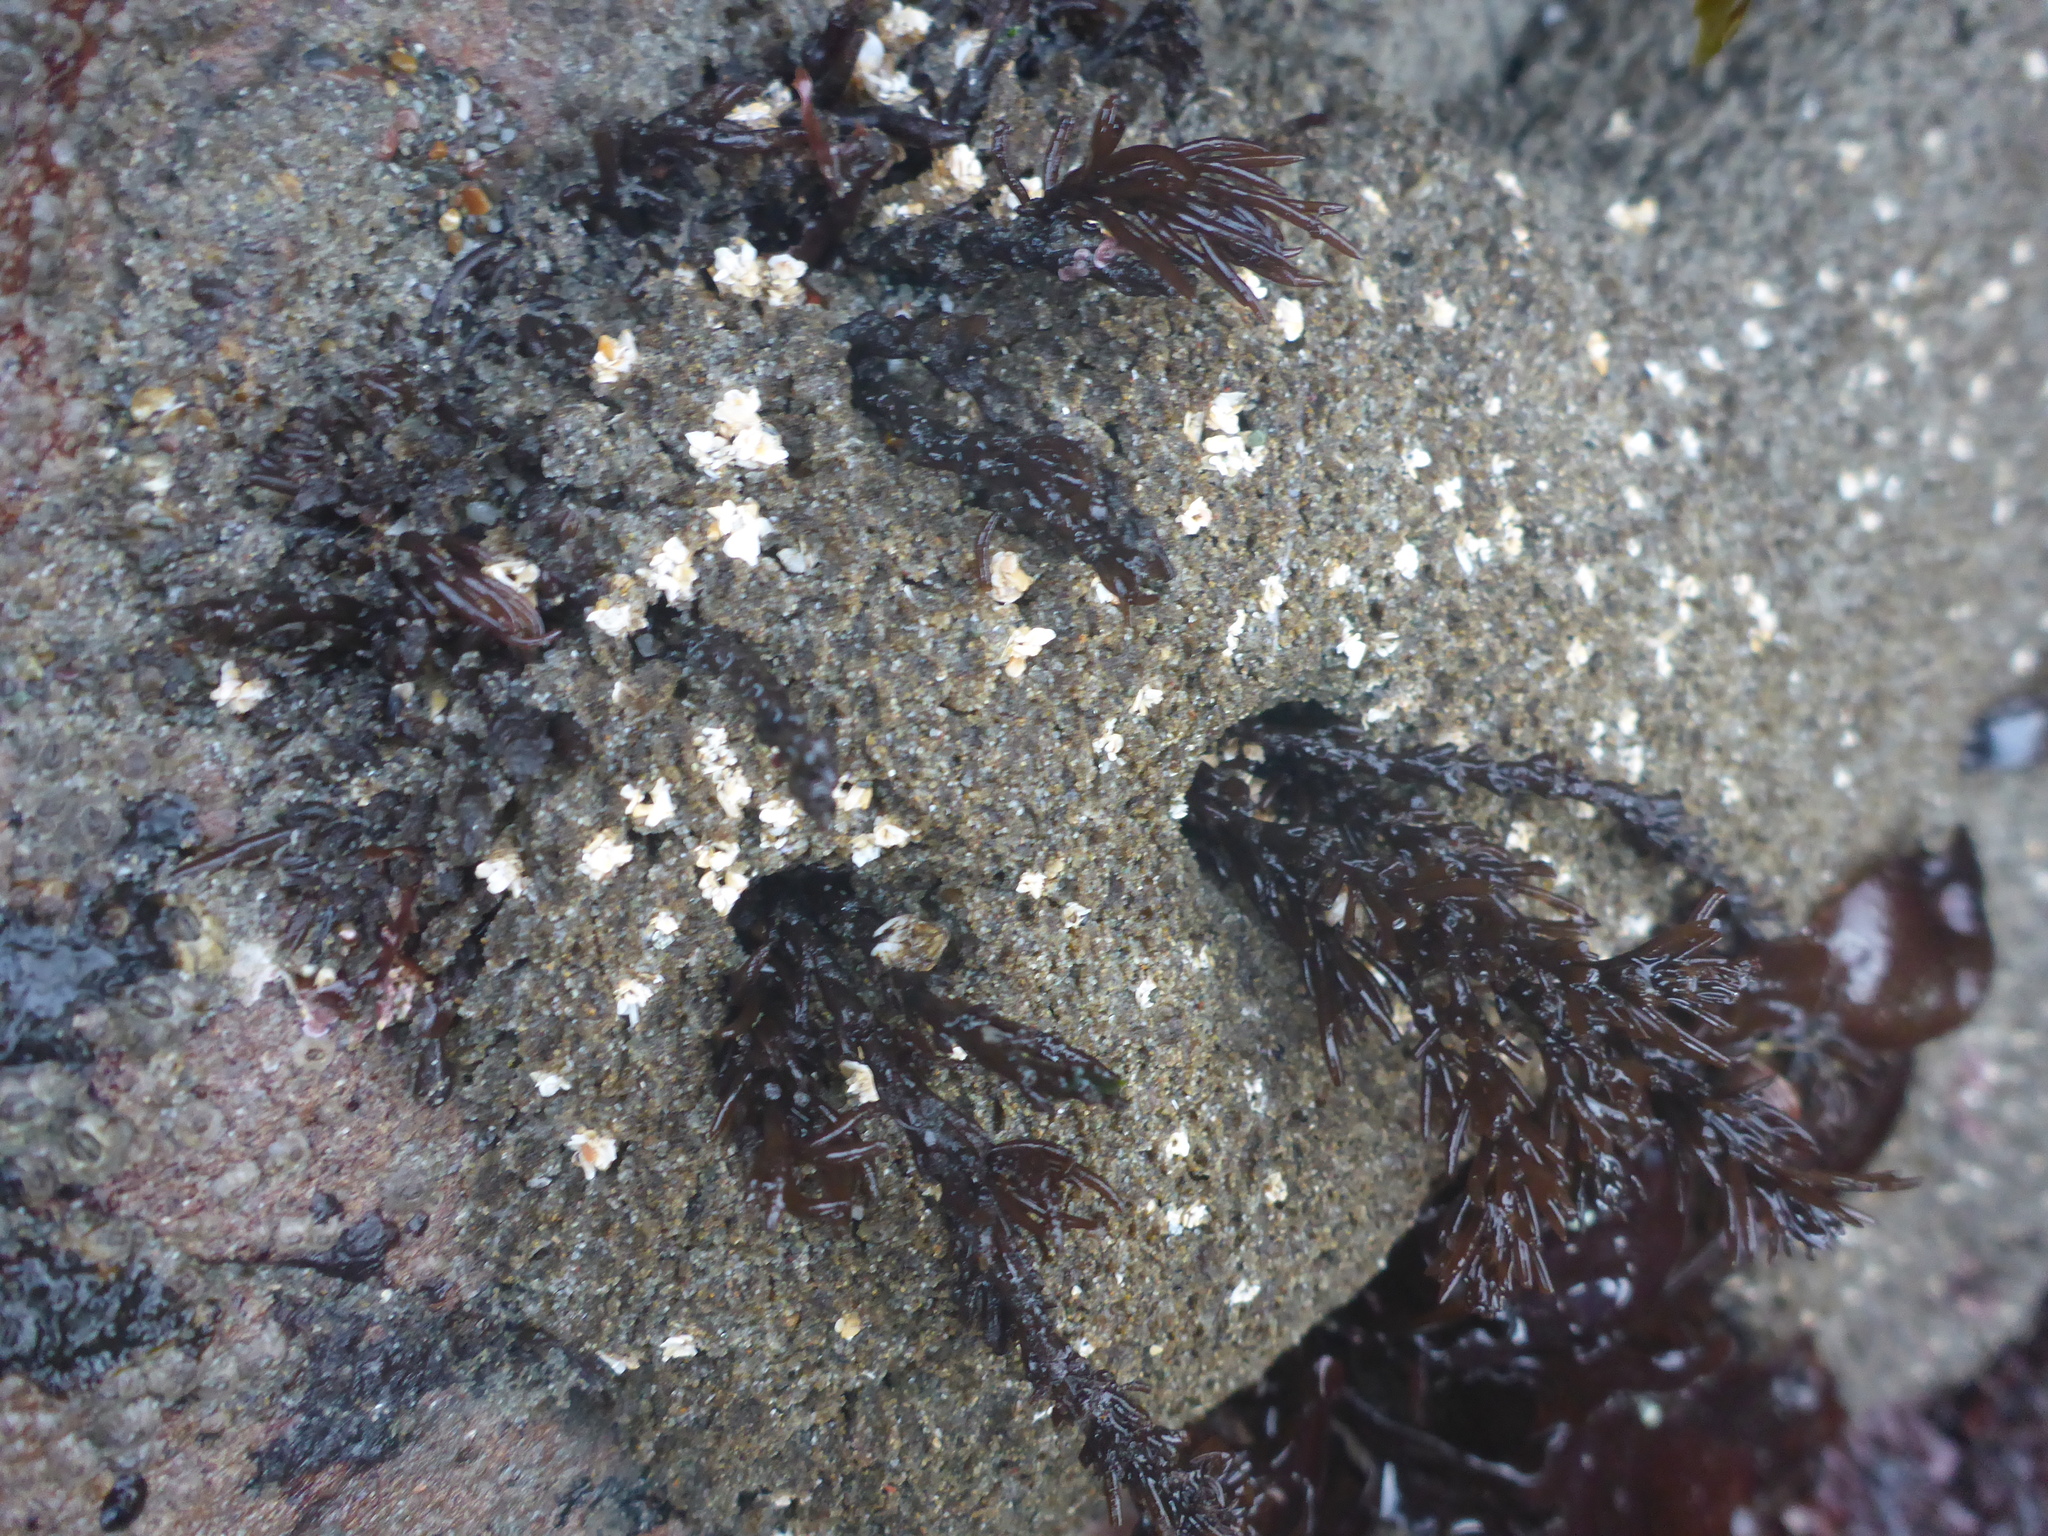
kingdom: Animalia
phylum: Annelida
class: Polychaeta
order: Sabellida
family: Sabellariidae
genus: Phragmatopoma
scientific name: Phragmatopoma californica
